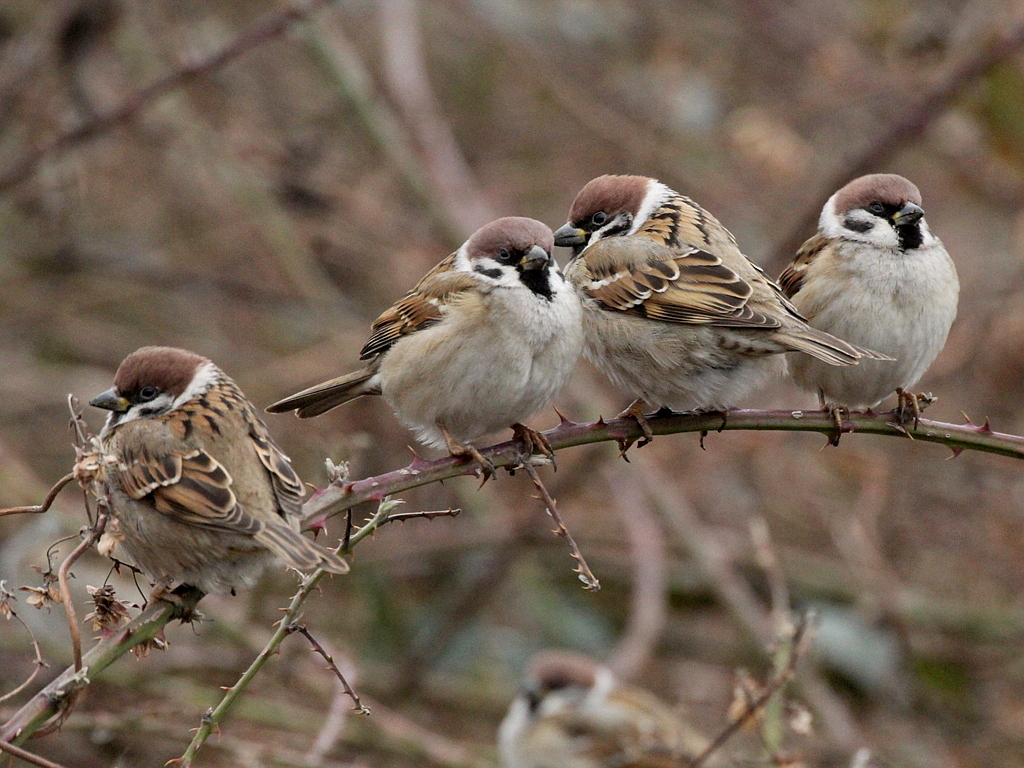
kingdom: Animalia
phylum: Chordata
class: Aves
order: Passeriformes
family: Passeridae
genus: Passer
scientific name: Passer montanus
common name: Eurasian tree sparrow
